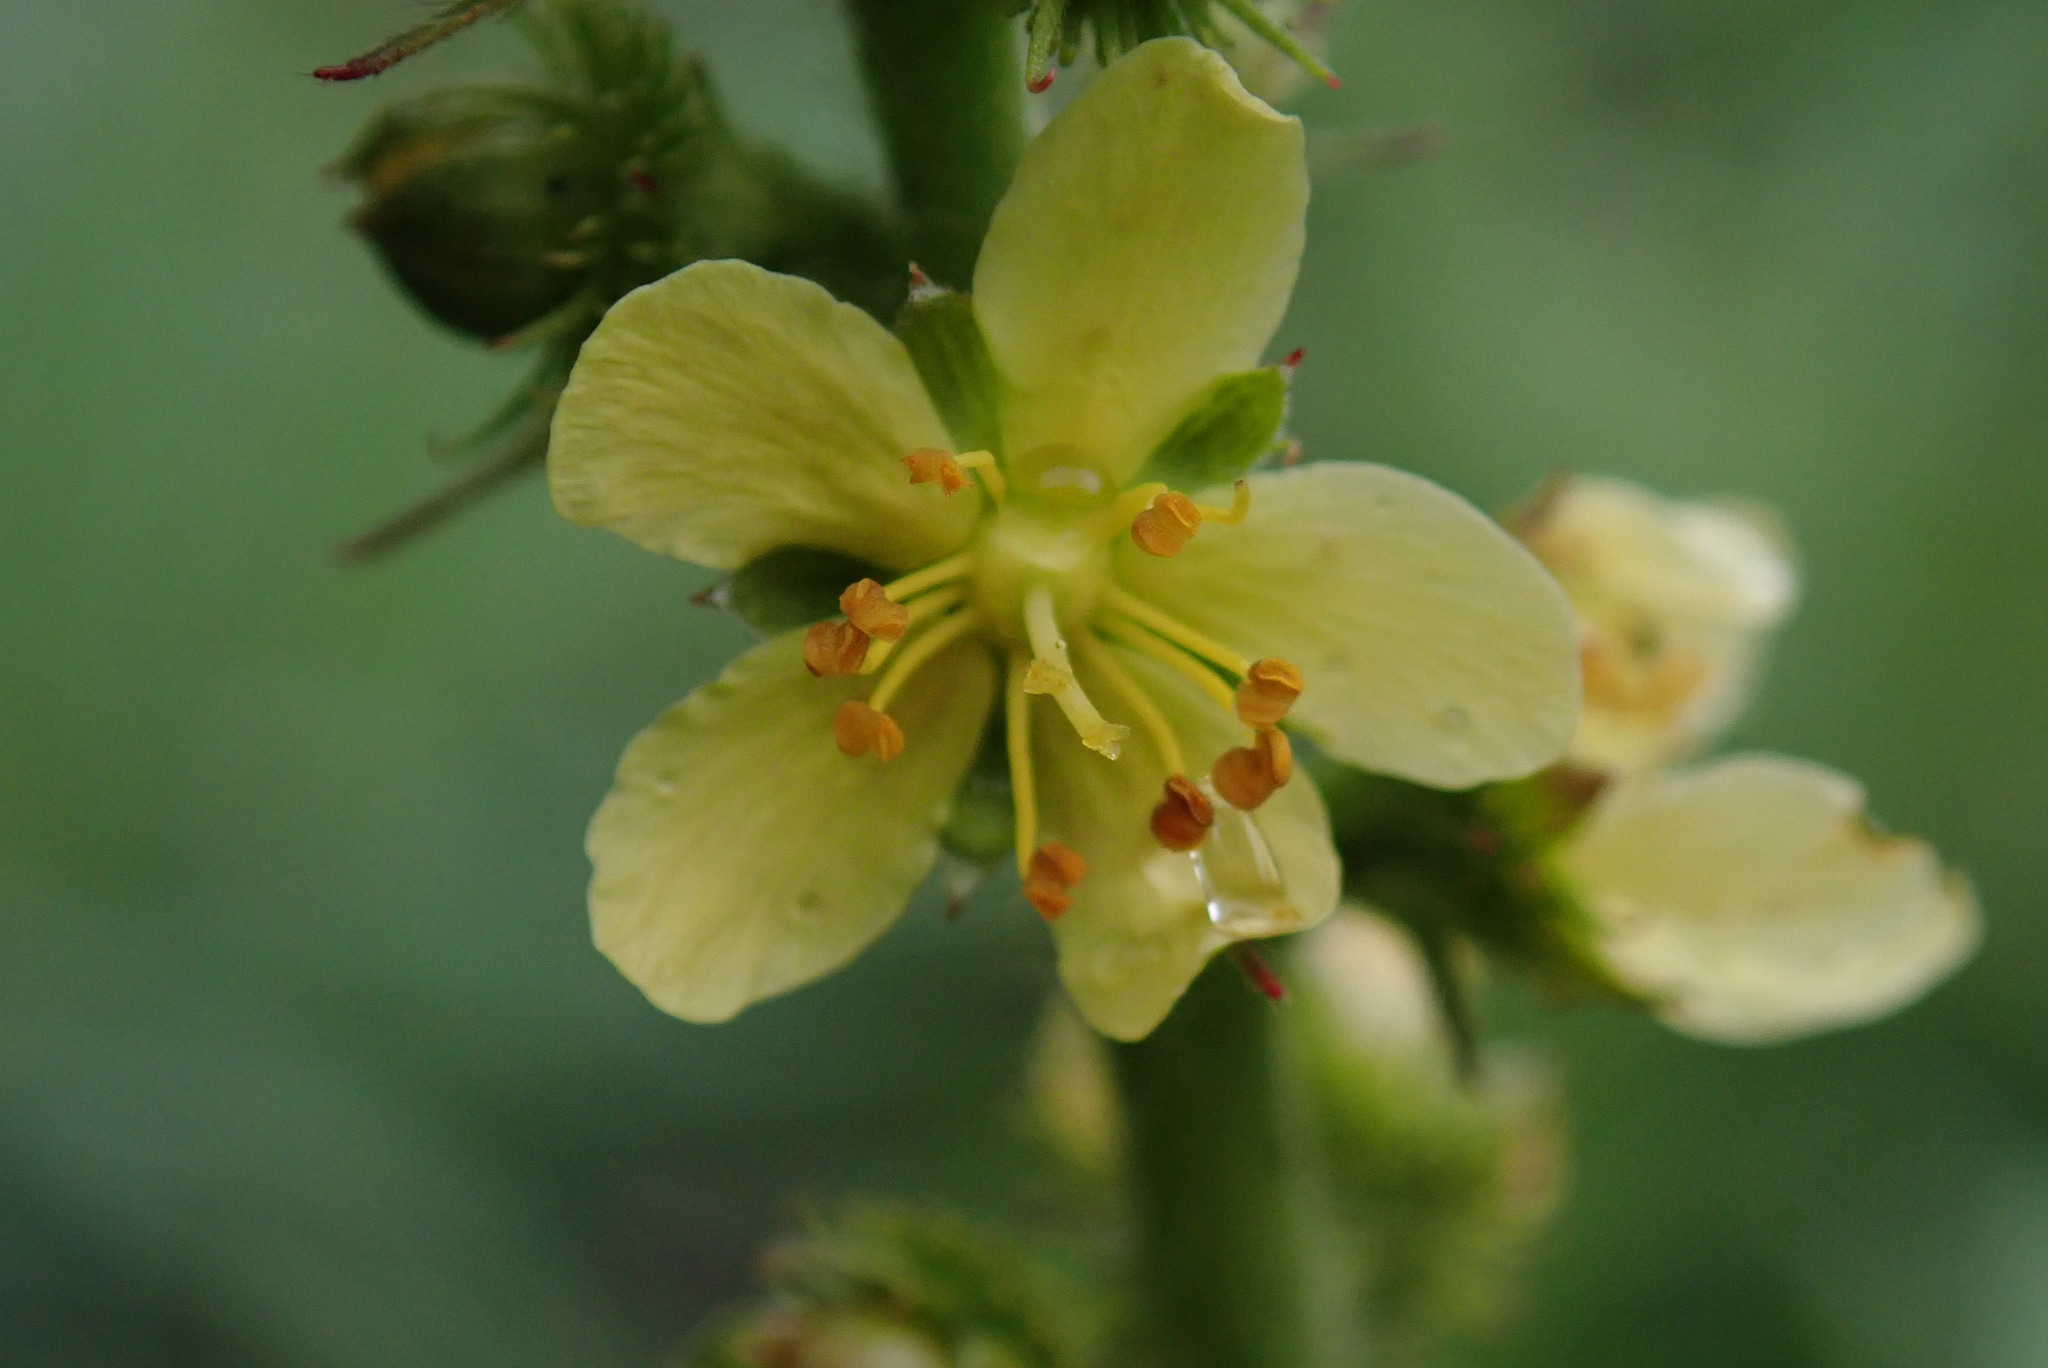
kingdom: Plantae
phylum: Tracheophyta
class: Magnoliopsida
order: Rosales
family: Rosaceae
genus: Agrimonia
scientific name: Agrimonia bracteata
